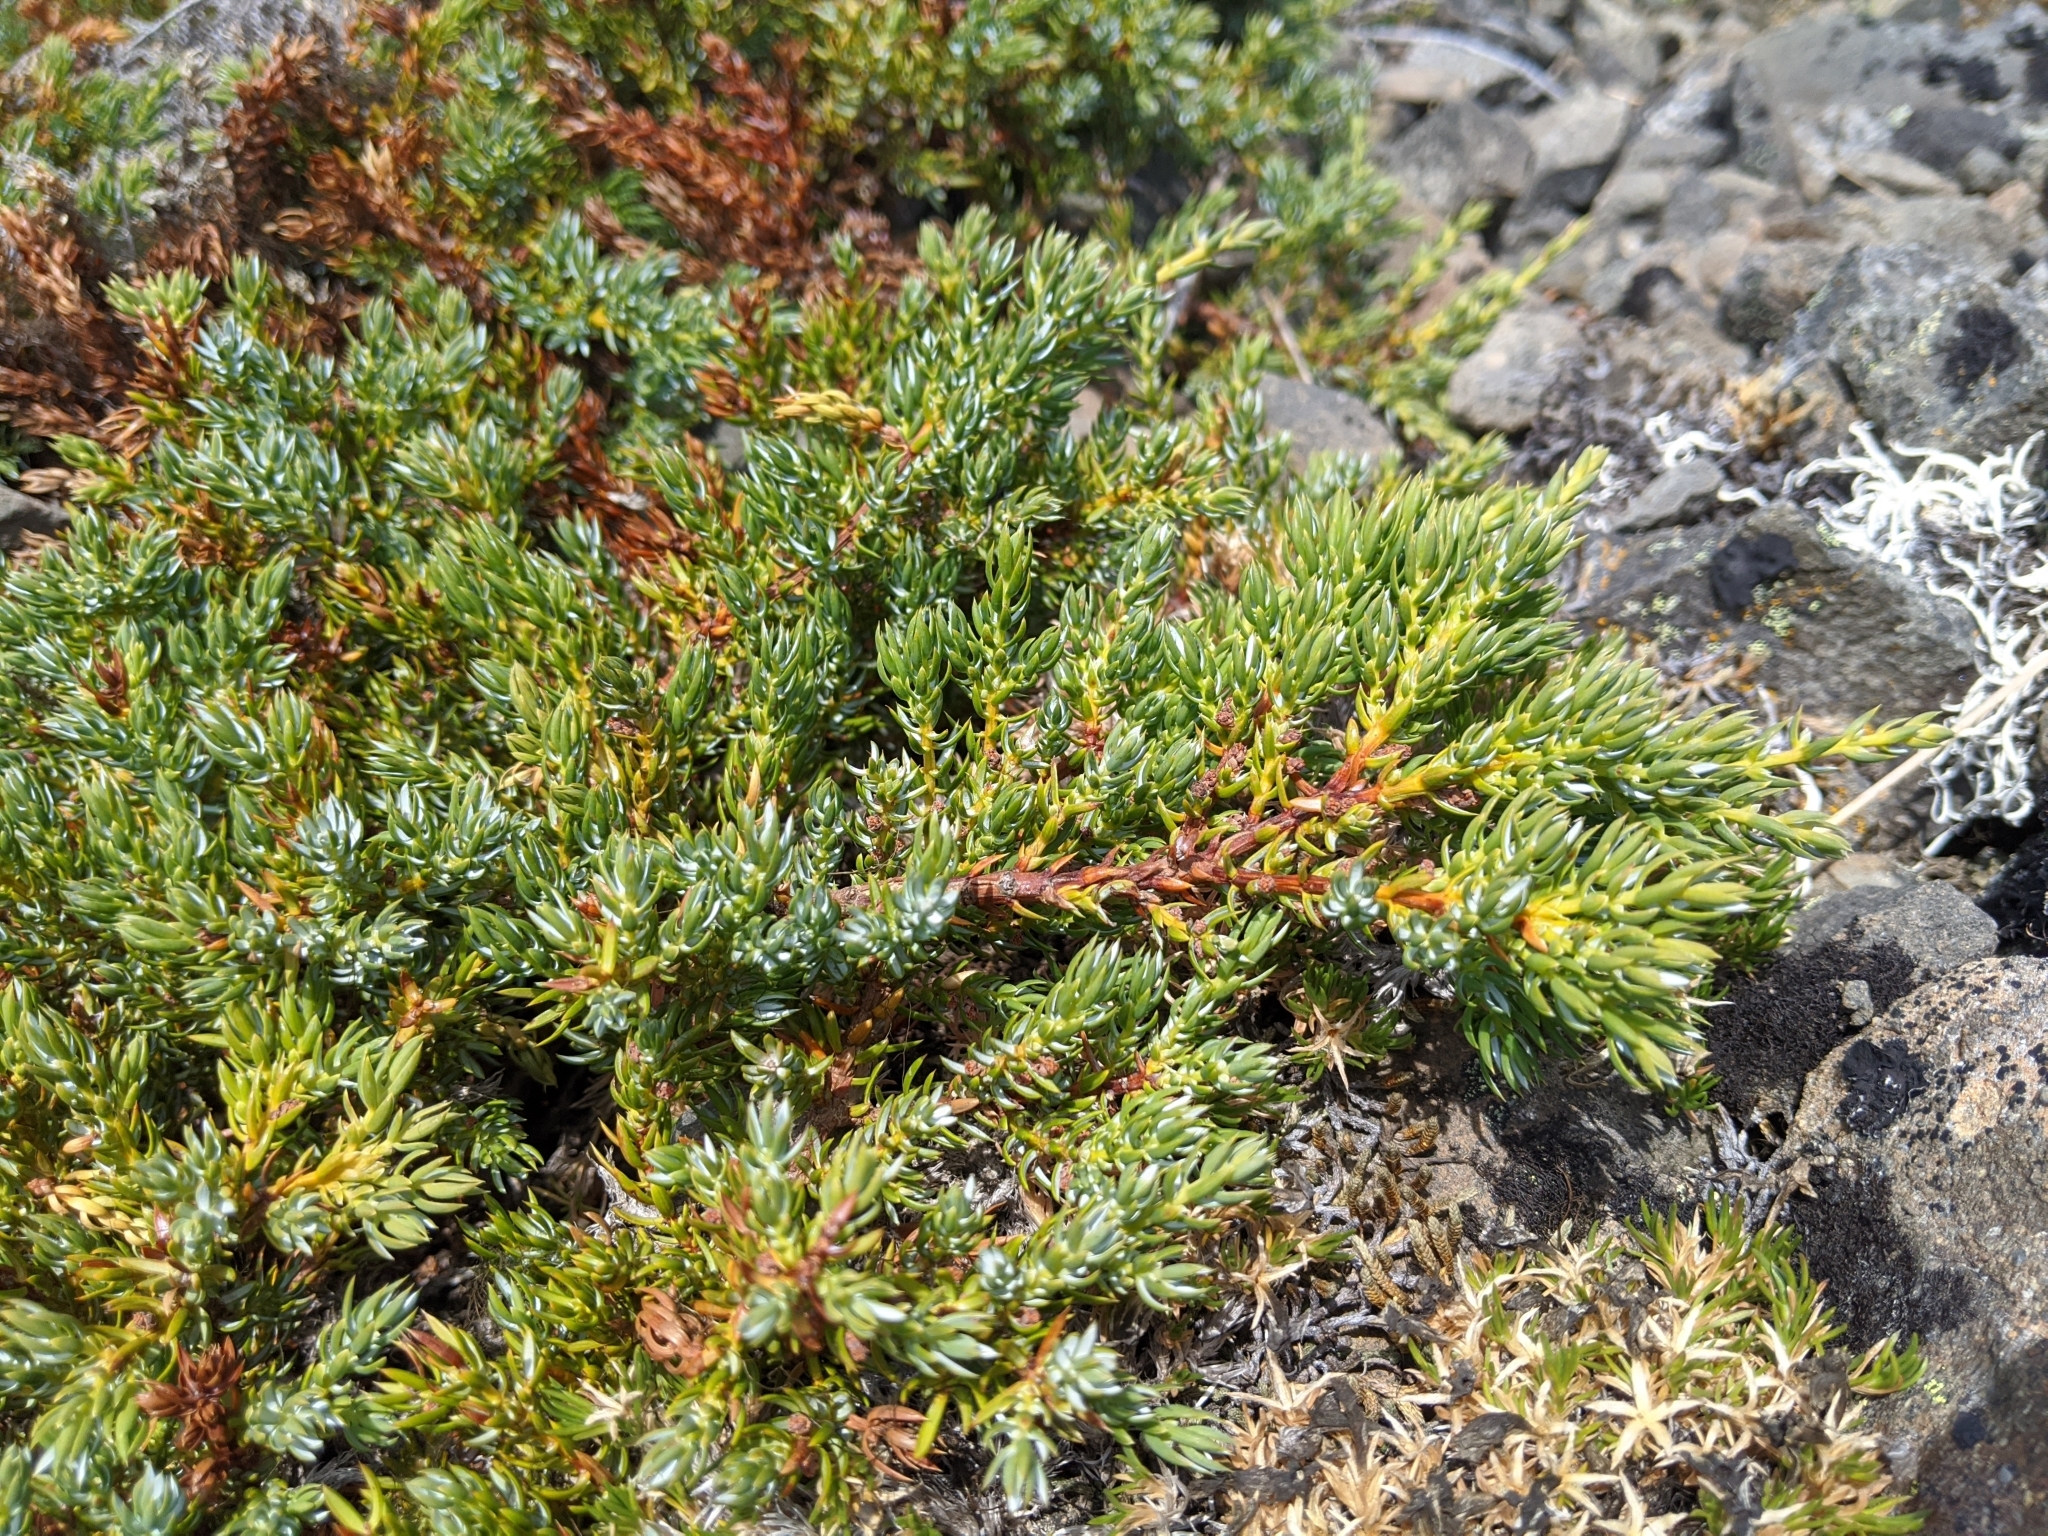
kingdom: Plantae
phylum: Tracheophyta
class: Pinopsida
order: Pinales
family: Cupressaceae
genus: Juniperus
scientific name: Juniperus communis
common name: Common juniper
